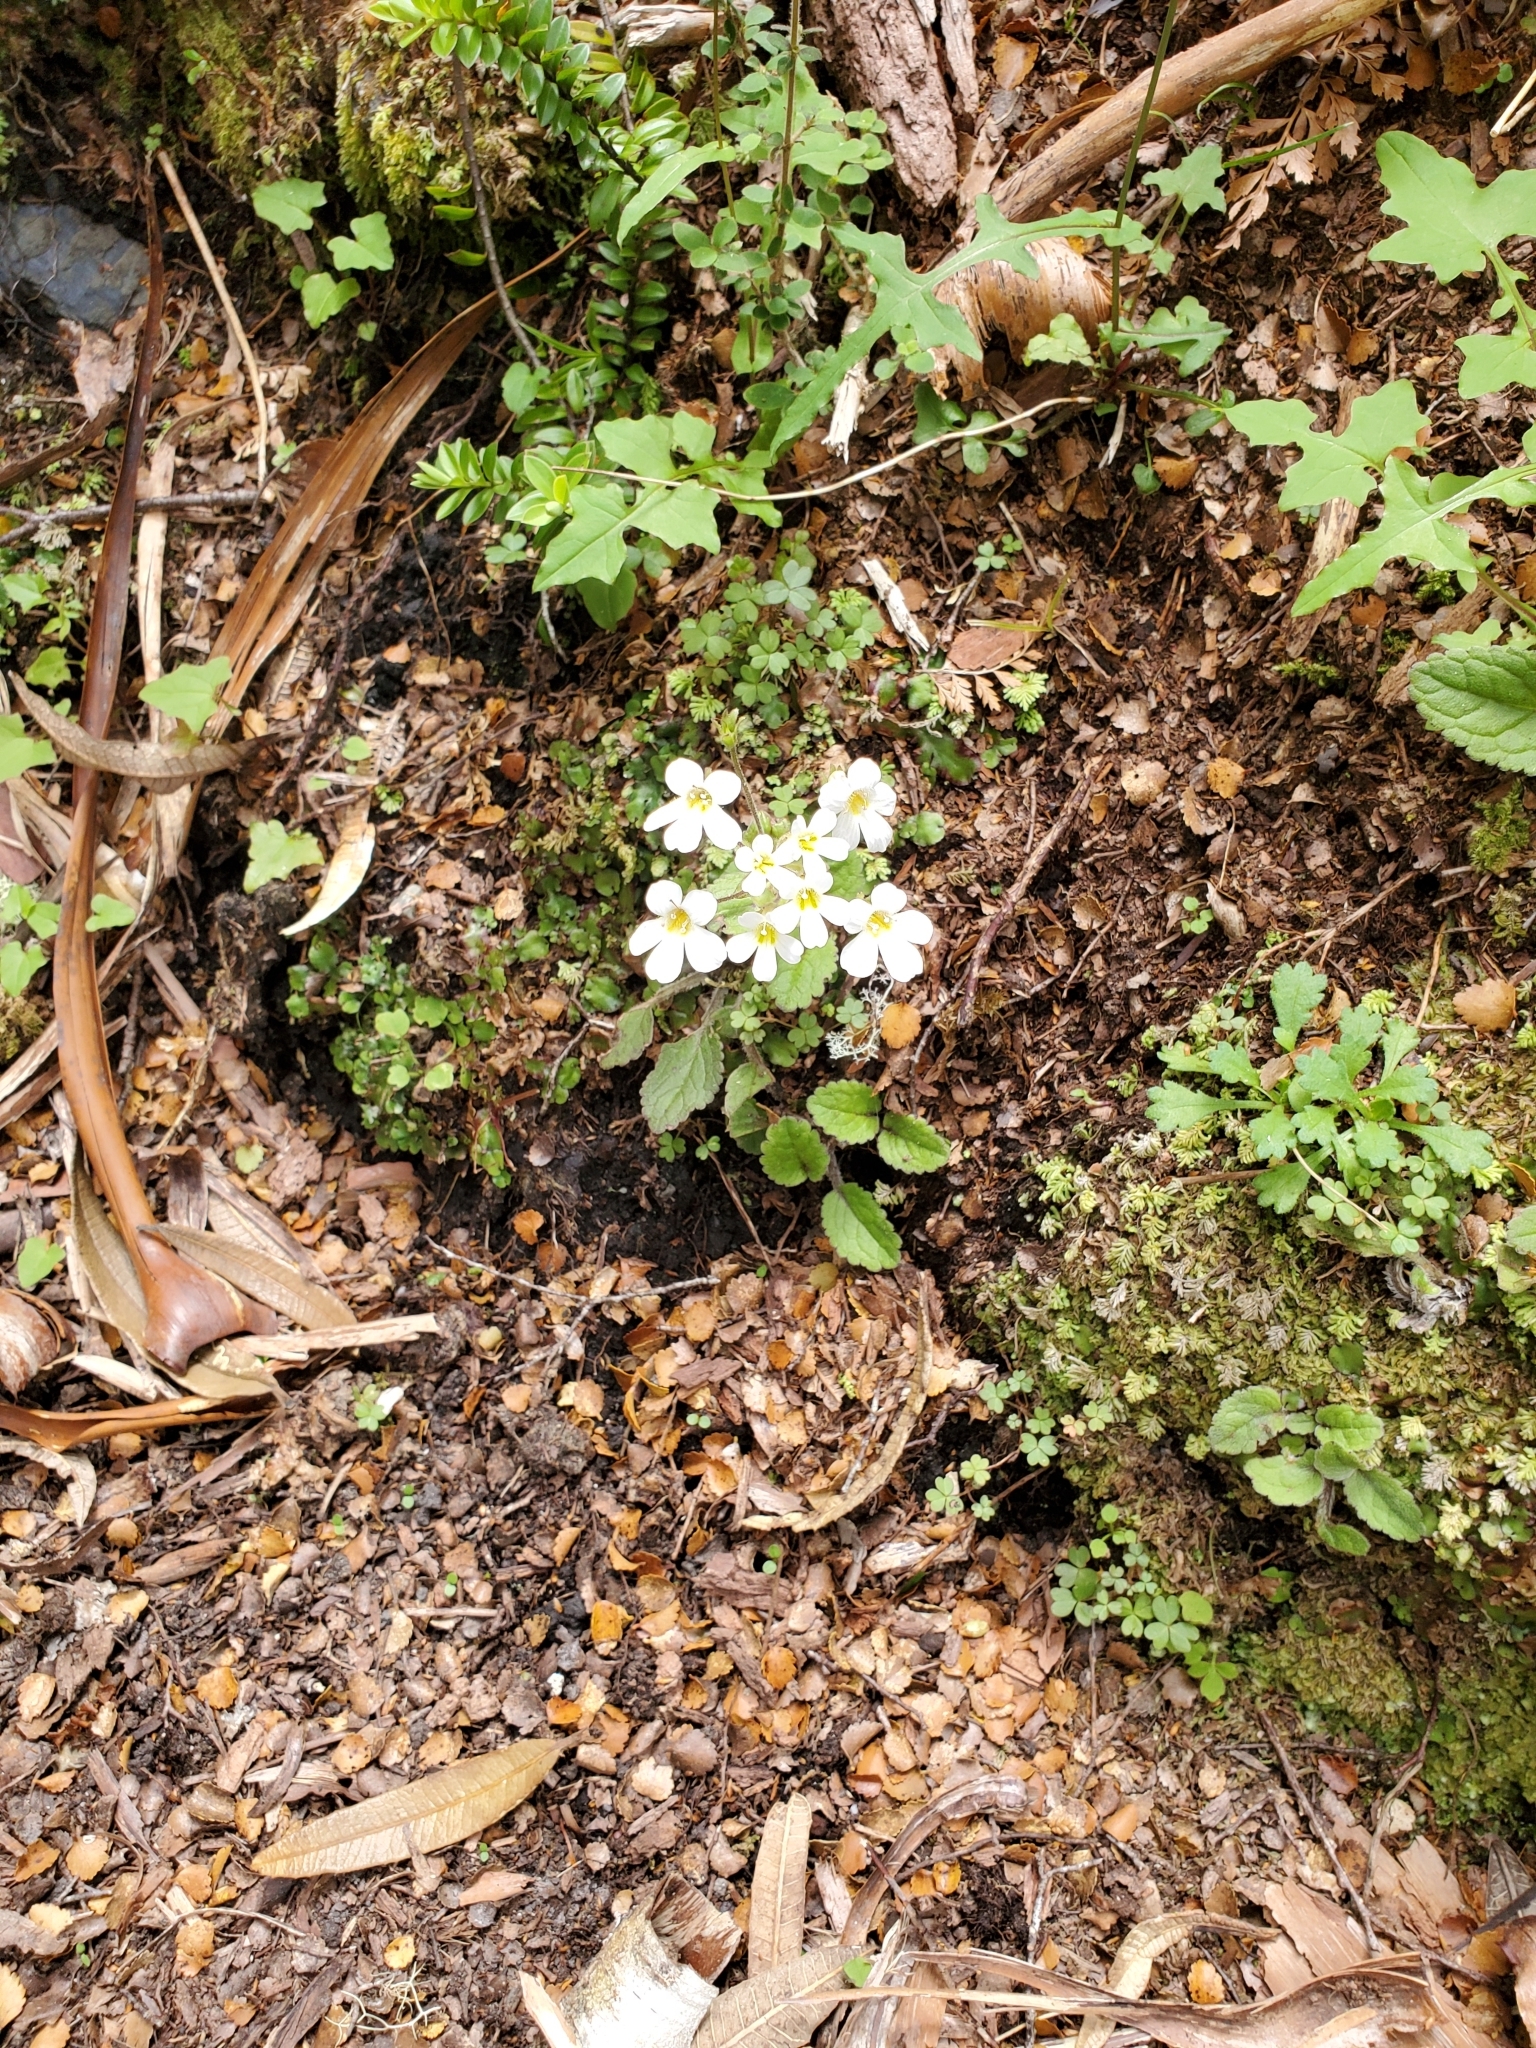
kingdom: Plantae
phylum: Tracheophyta
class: Magnoliopsida
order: Lamiales
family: Plantaginaceae
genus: Ourisia
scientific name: Ourisia macrophylla
